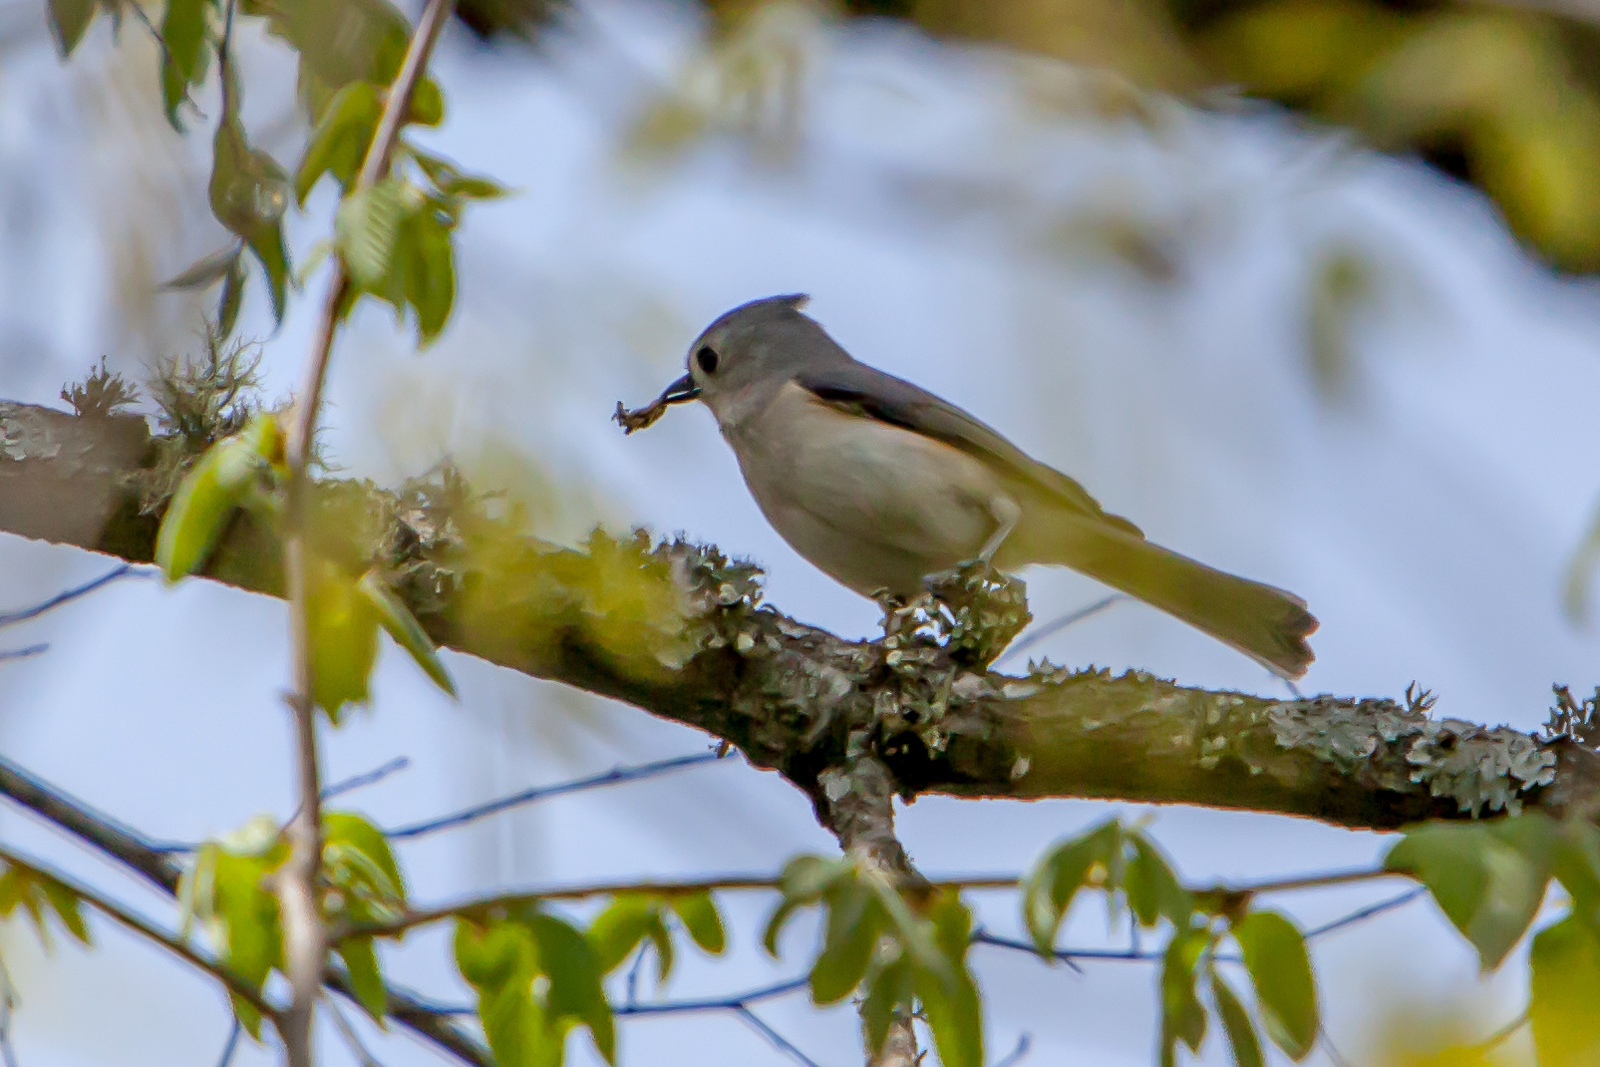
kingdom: Animalia
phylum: Chordata
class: Aves
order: Passeriformes
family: Paridae
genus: Baeolophus
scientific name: Baeolophus bicolor
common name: Tufted titmouse
